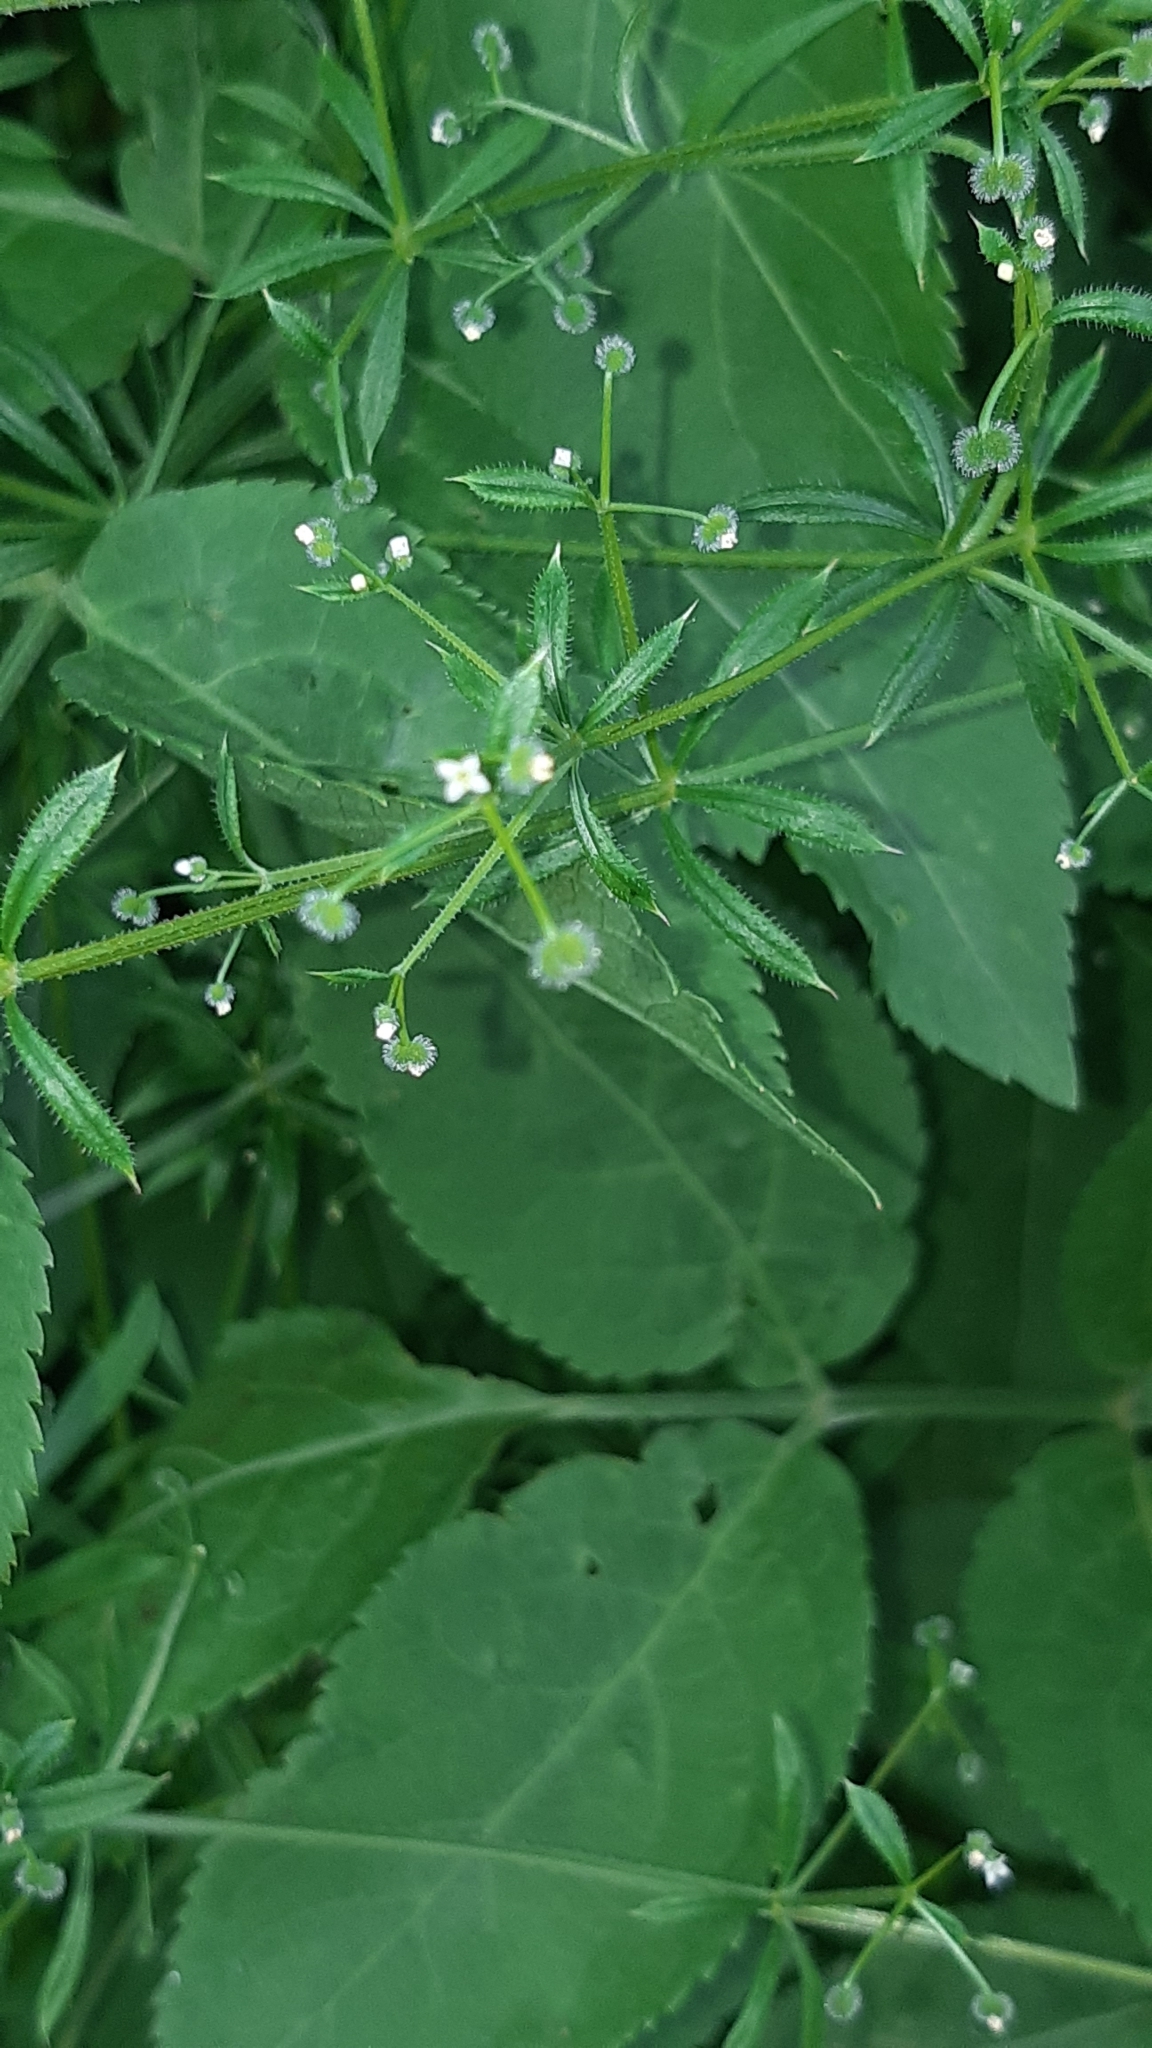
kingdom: Plantae
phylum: Tracheophyta
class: Magnoliopsida
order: Gentianales
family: Rubiaceae
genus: Galium
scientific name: Galium aparine
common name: Cleavers
